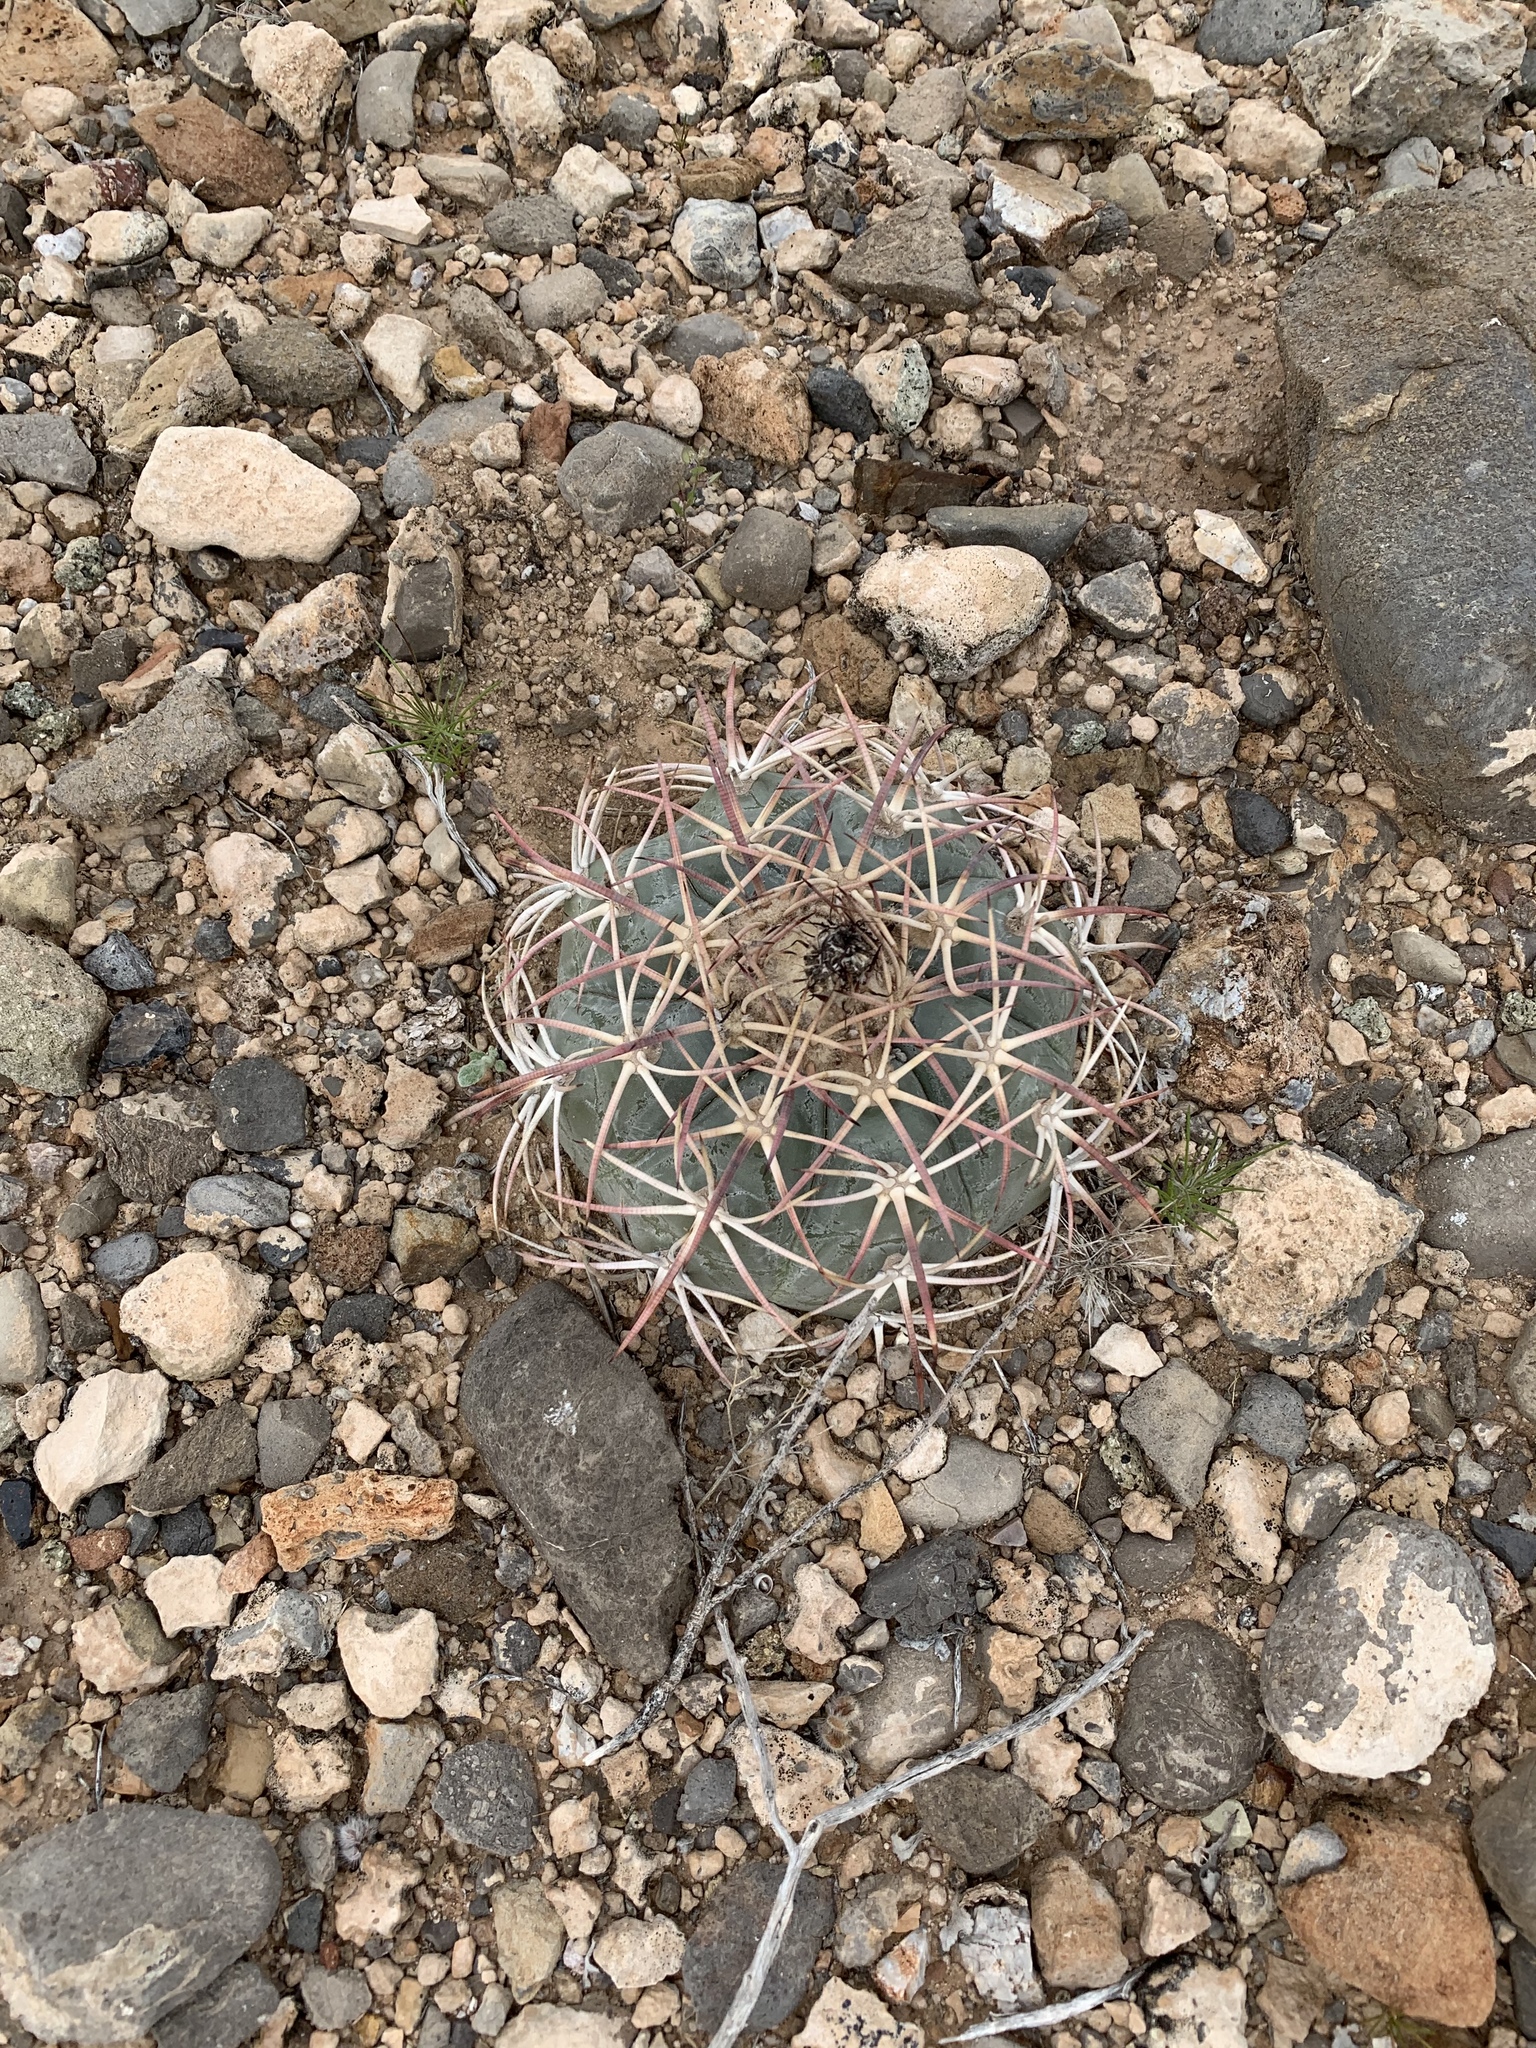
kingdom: Plantae
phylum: Tracheophyta
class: Magnoliopsida
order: Caryophyllales
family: Cactaceae
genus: Echinocactus
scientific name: Echinocactus horizonthalonius
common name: Devilshead
